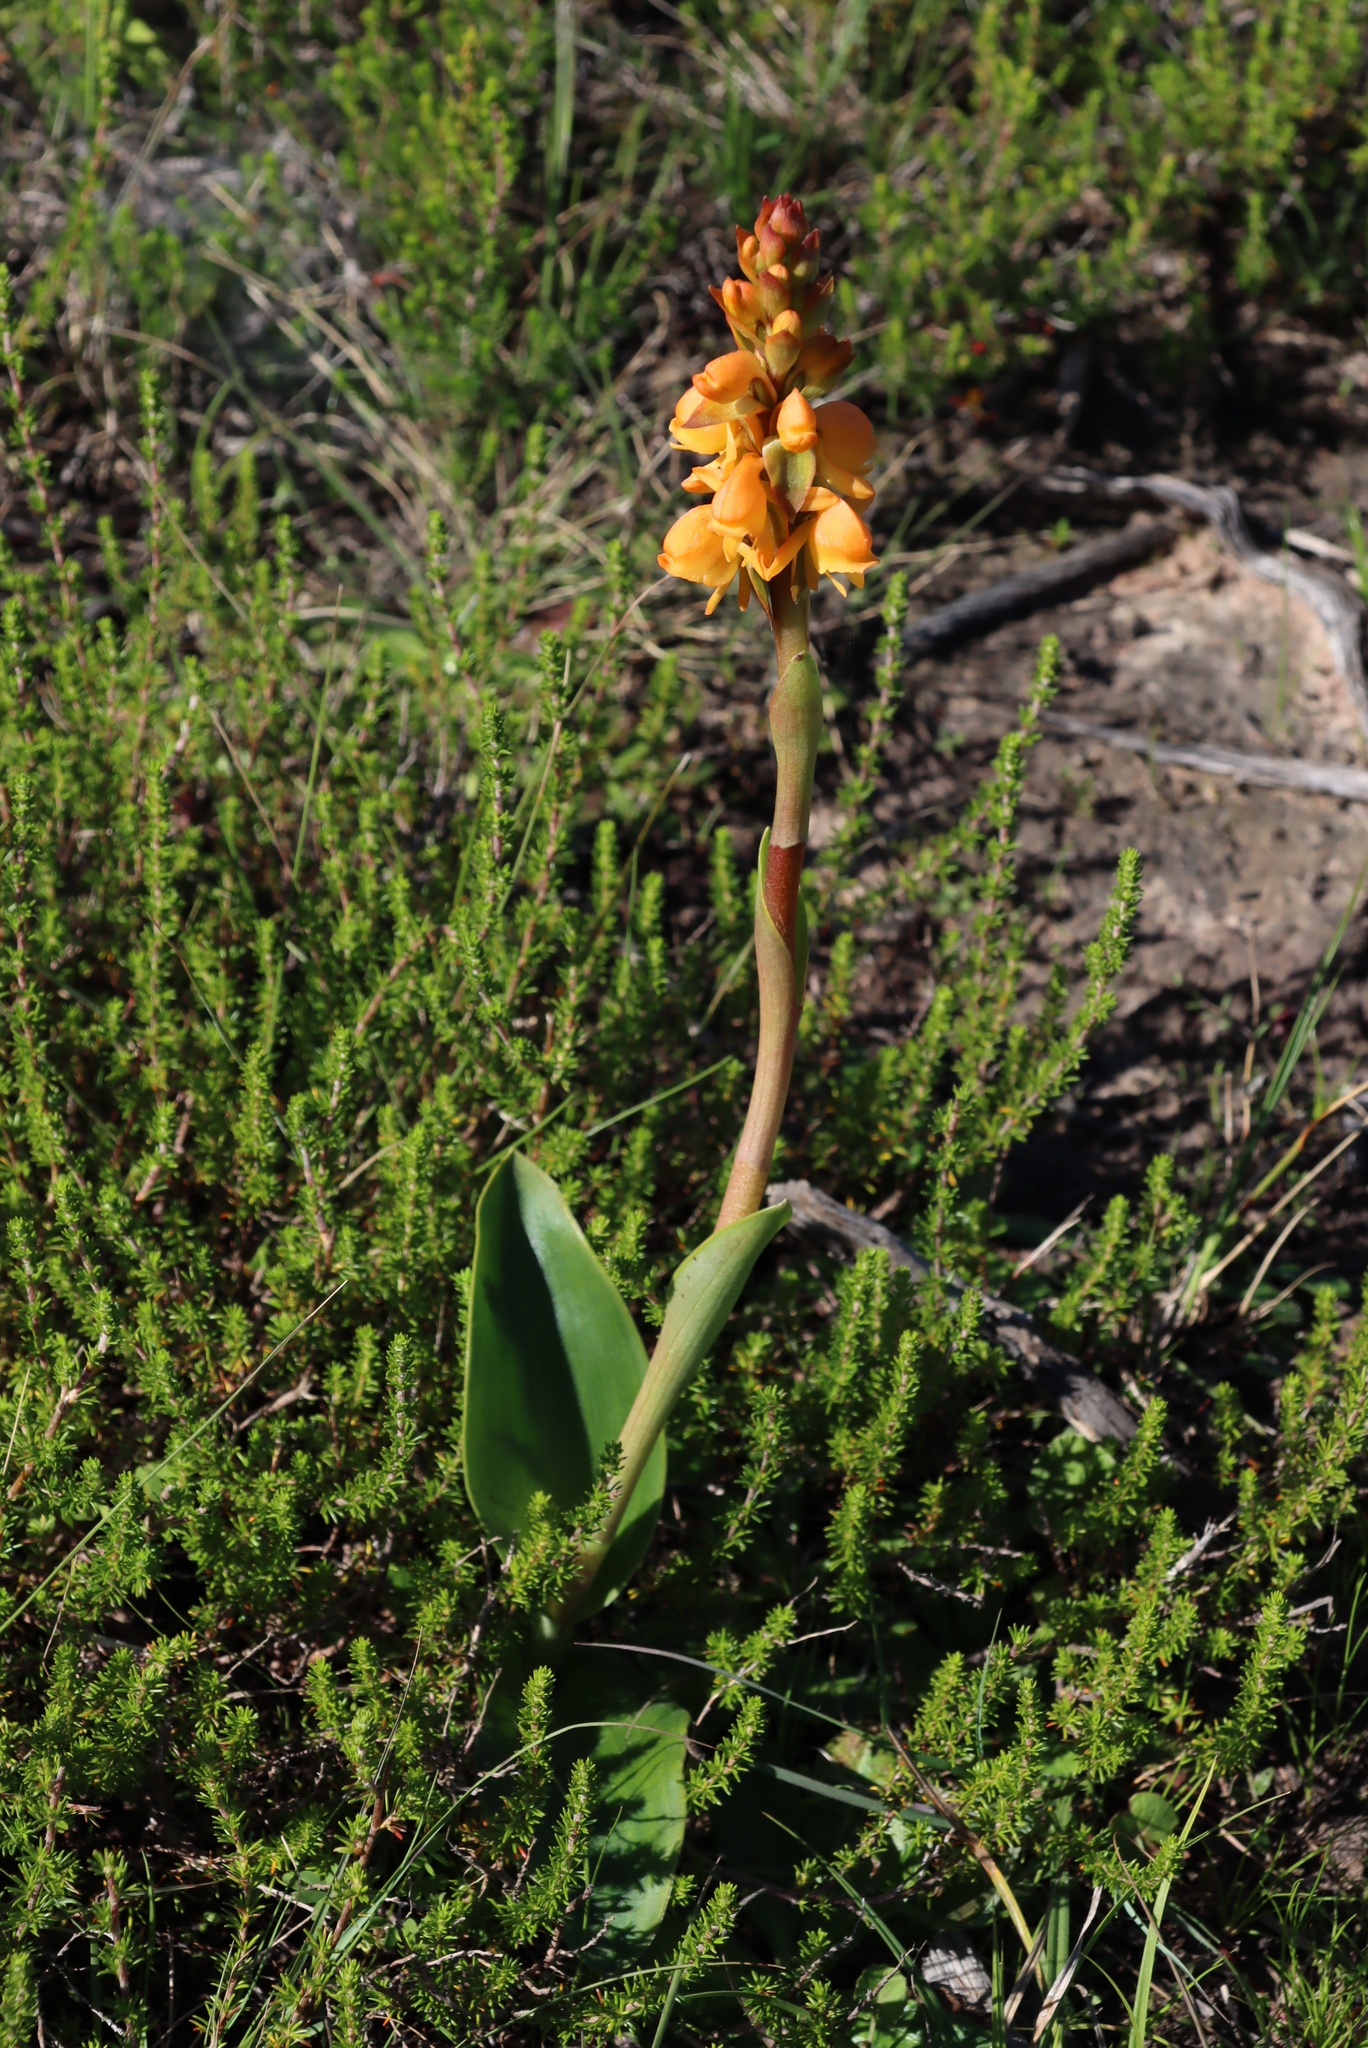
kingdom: Plantae
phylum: Tracheophyta
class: Liliopsida
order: Asparagales
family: Orchidaceae
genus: Satyrium
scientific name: Satyrium coriifolium
